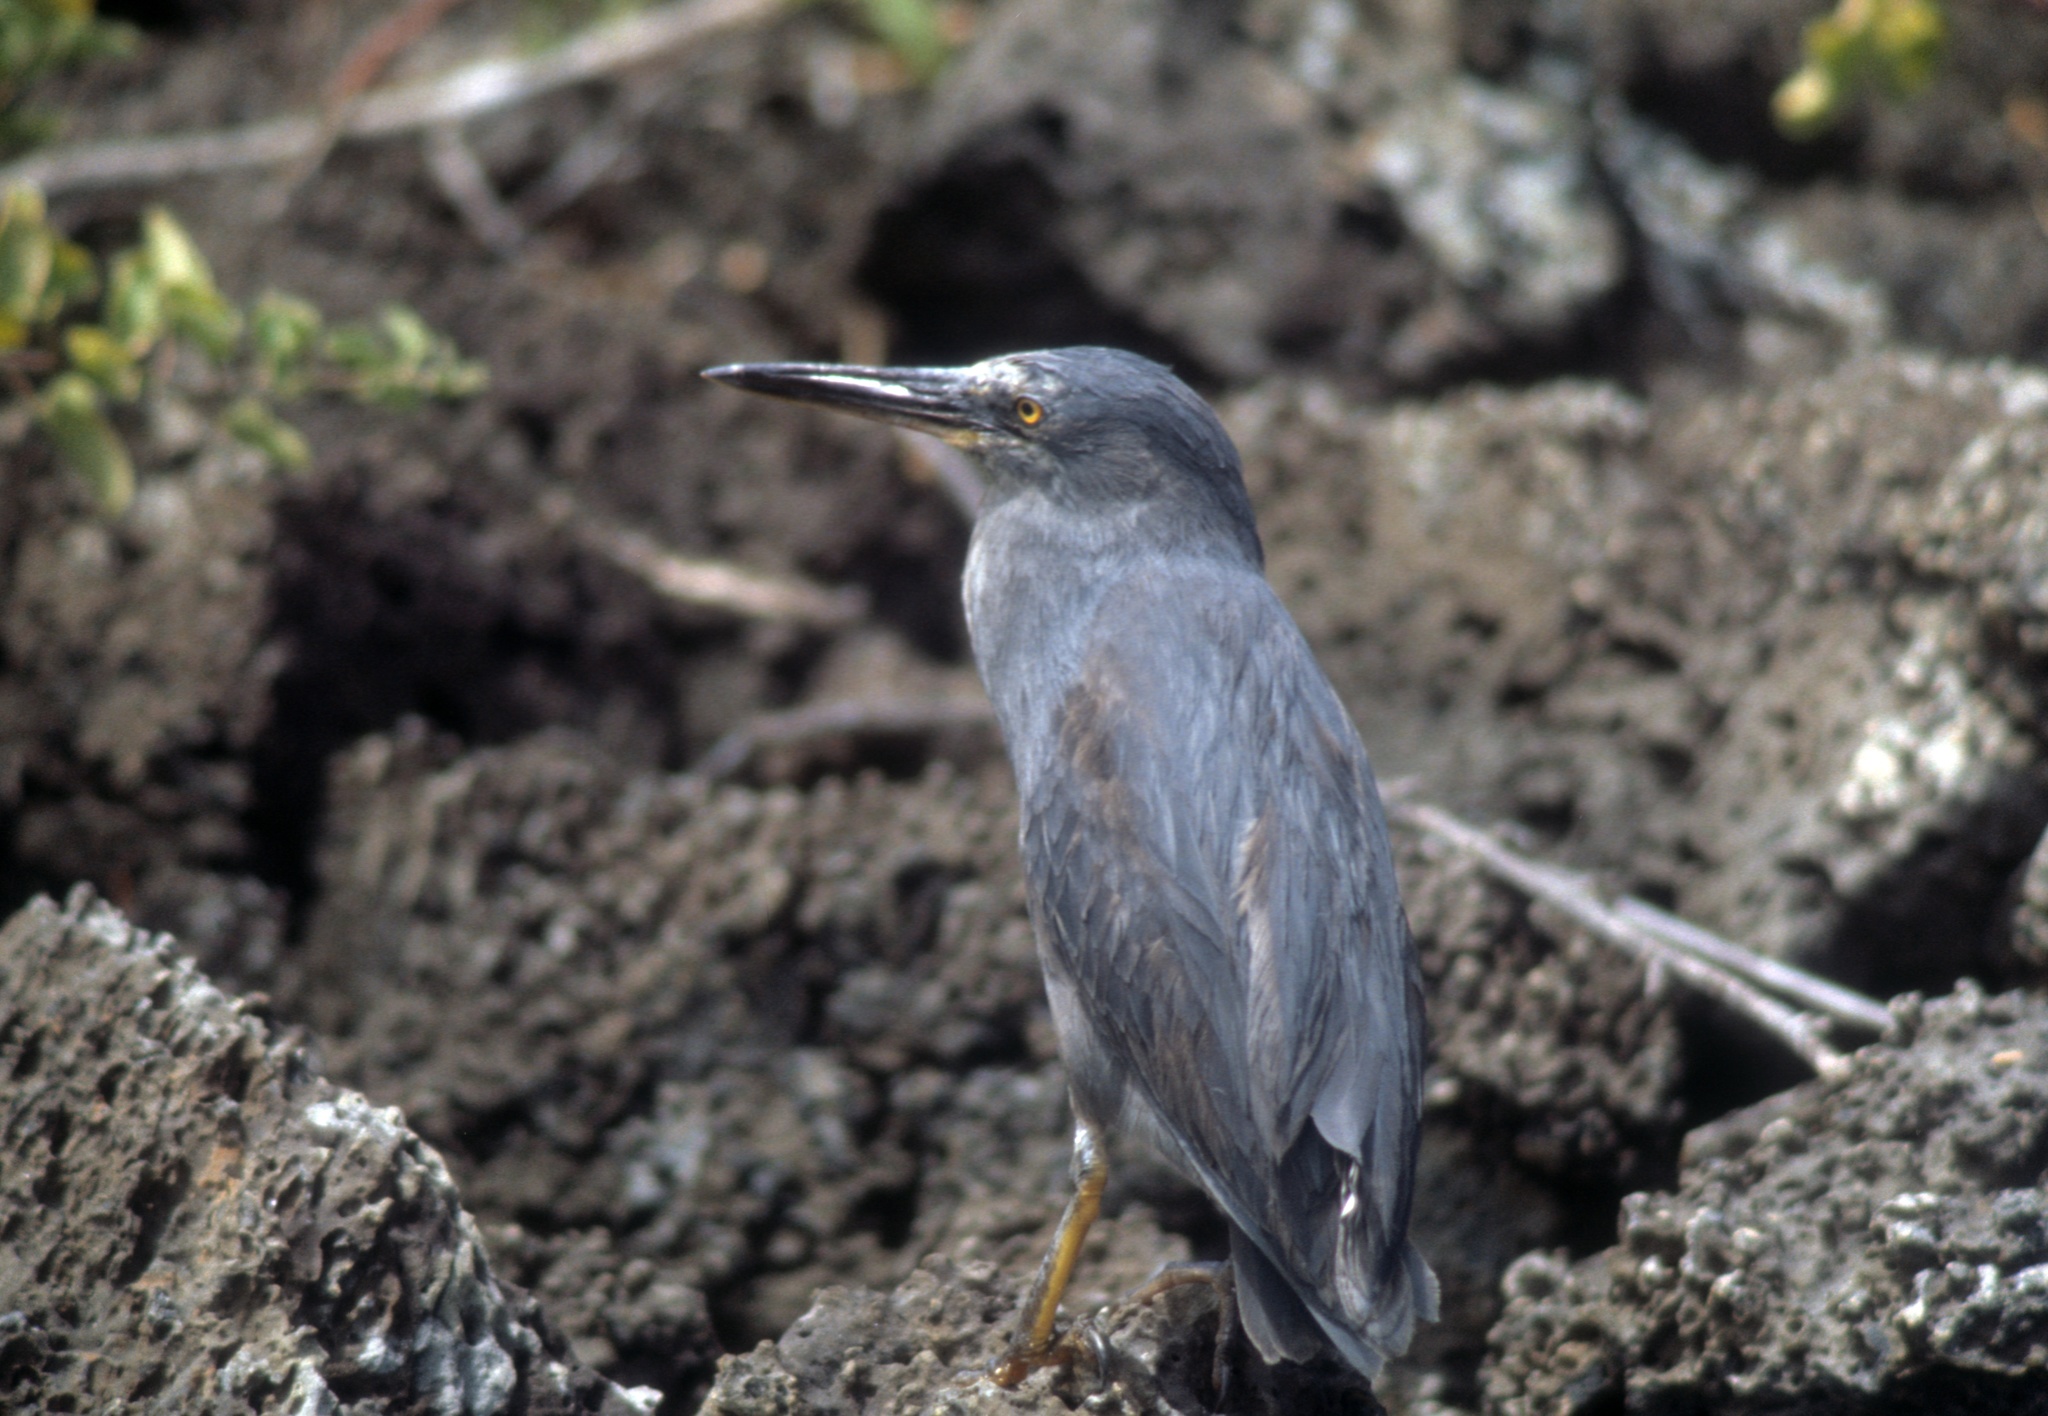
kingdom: Animalia
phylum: Chordata
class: Aves
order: Pelecaniformes
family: Ardeidae
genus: Butorides
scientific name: Butorides striata
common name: Striated heron
